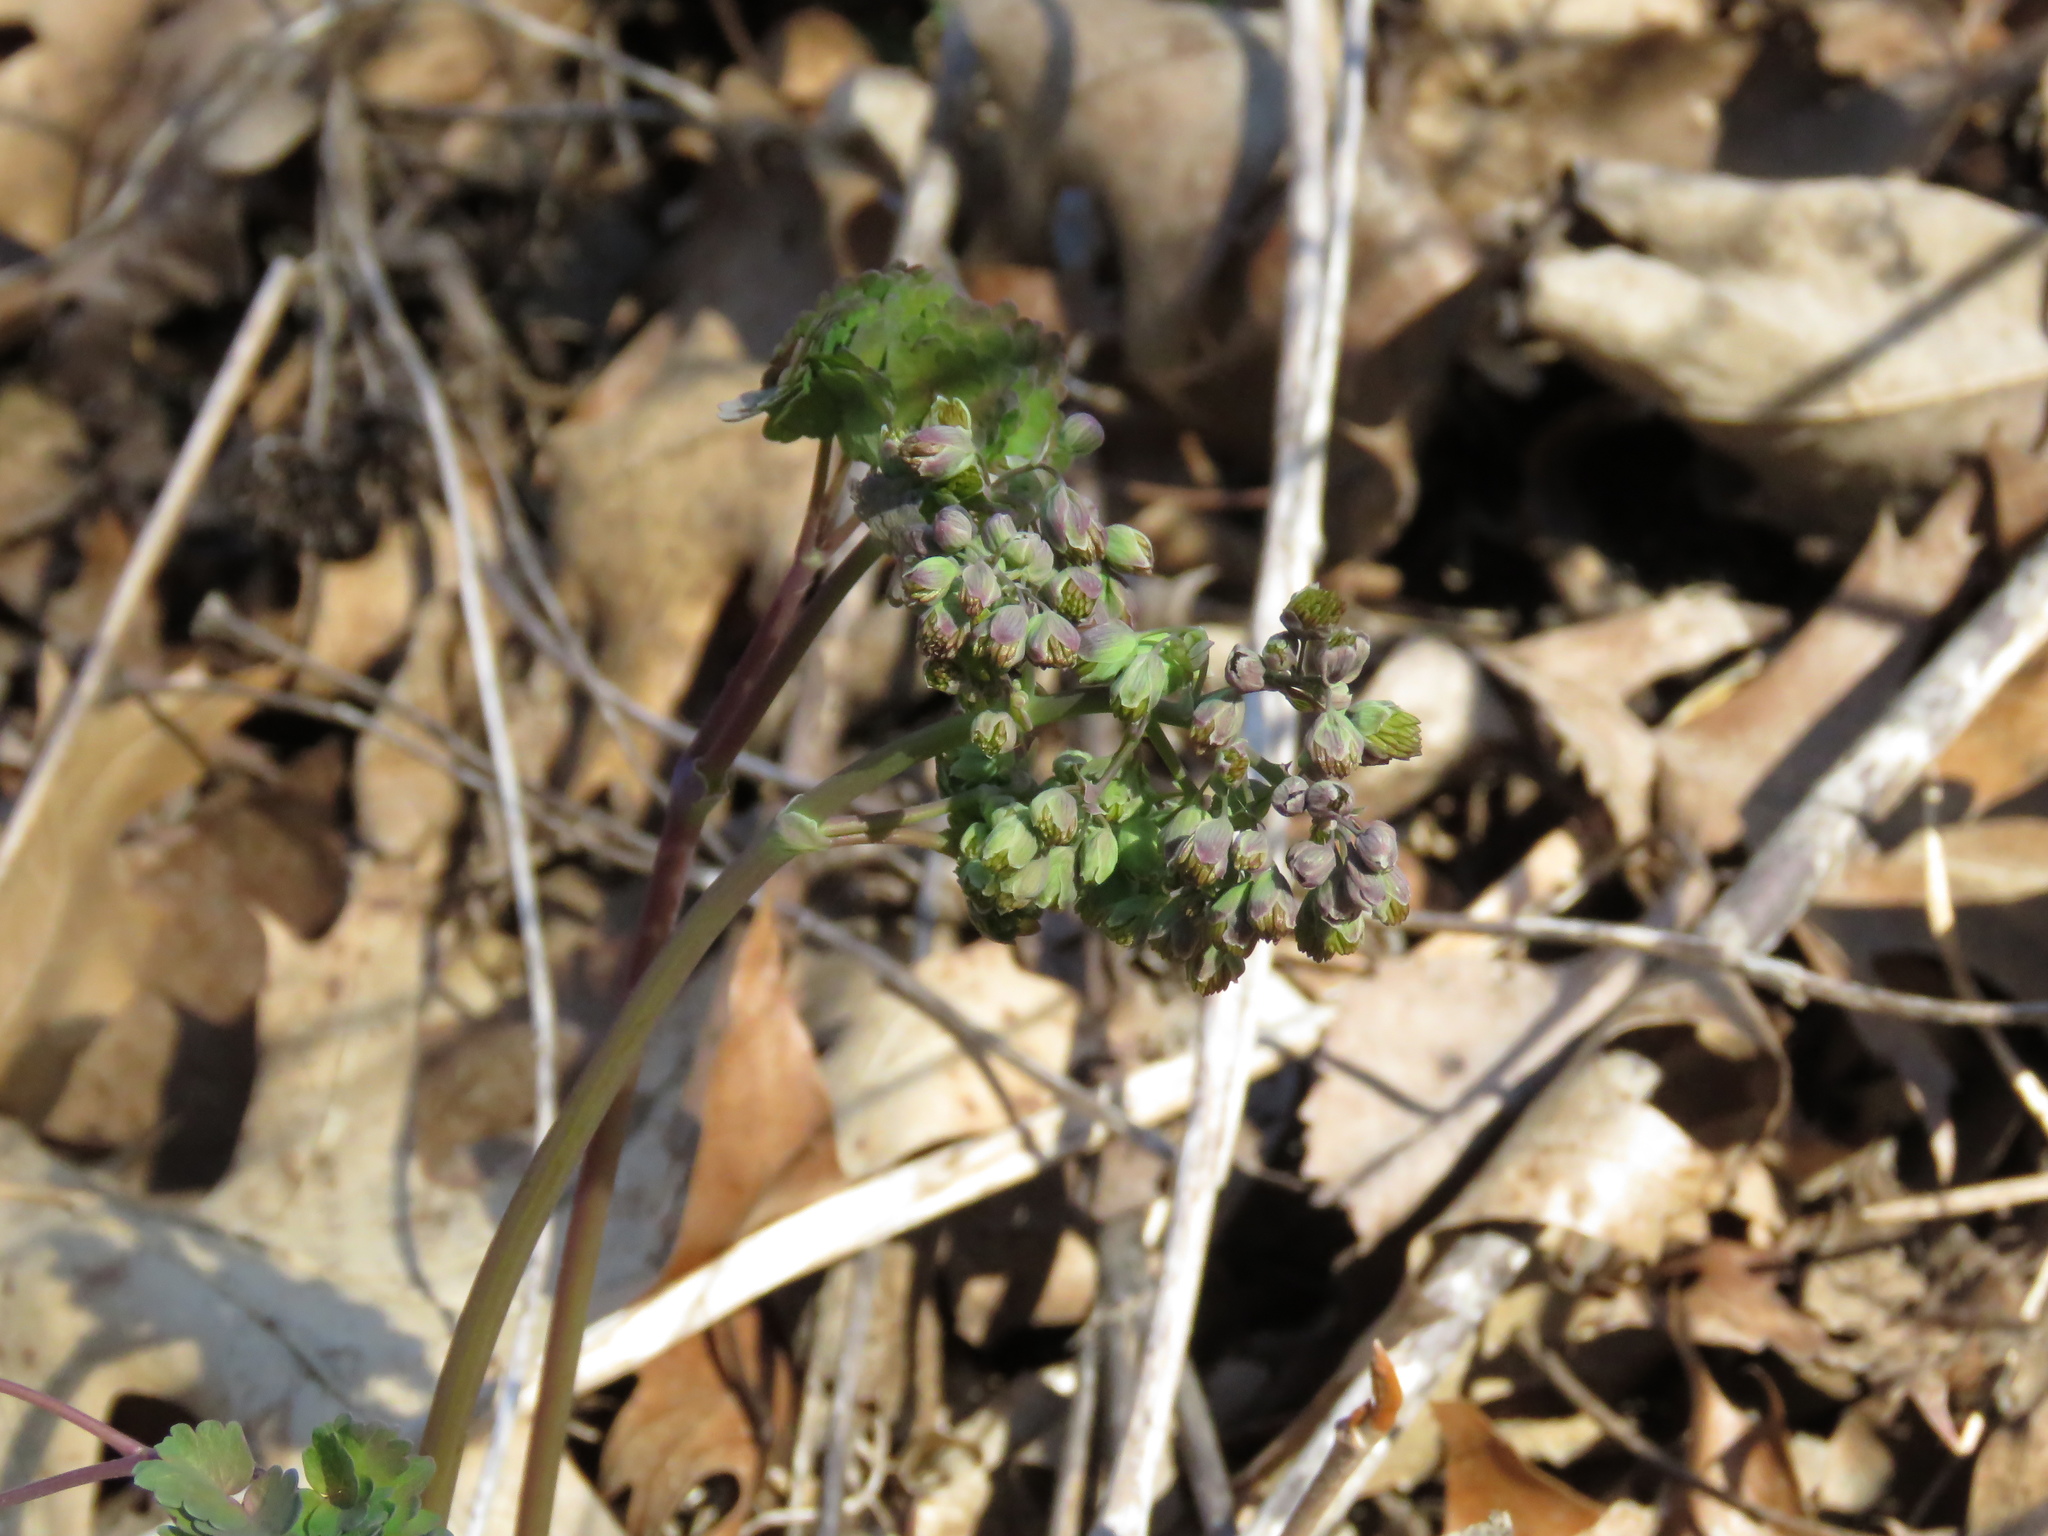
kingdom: Plantae
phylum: Tracheophyta
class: Magnoliopsida
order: Ranunculales
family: Ranunculaceae
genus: Thalictrum
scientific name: Thalictrum dioicum
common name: Early meadow-rue
